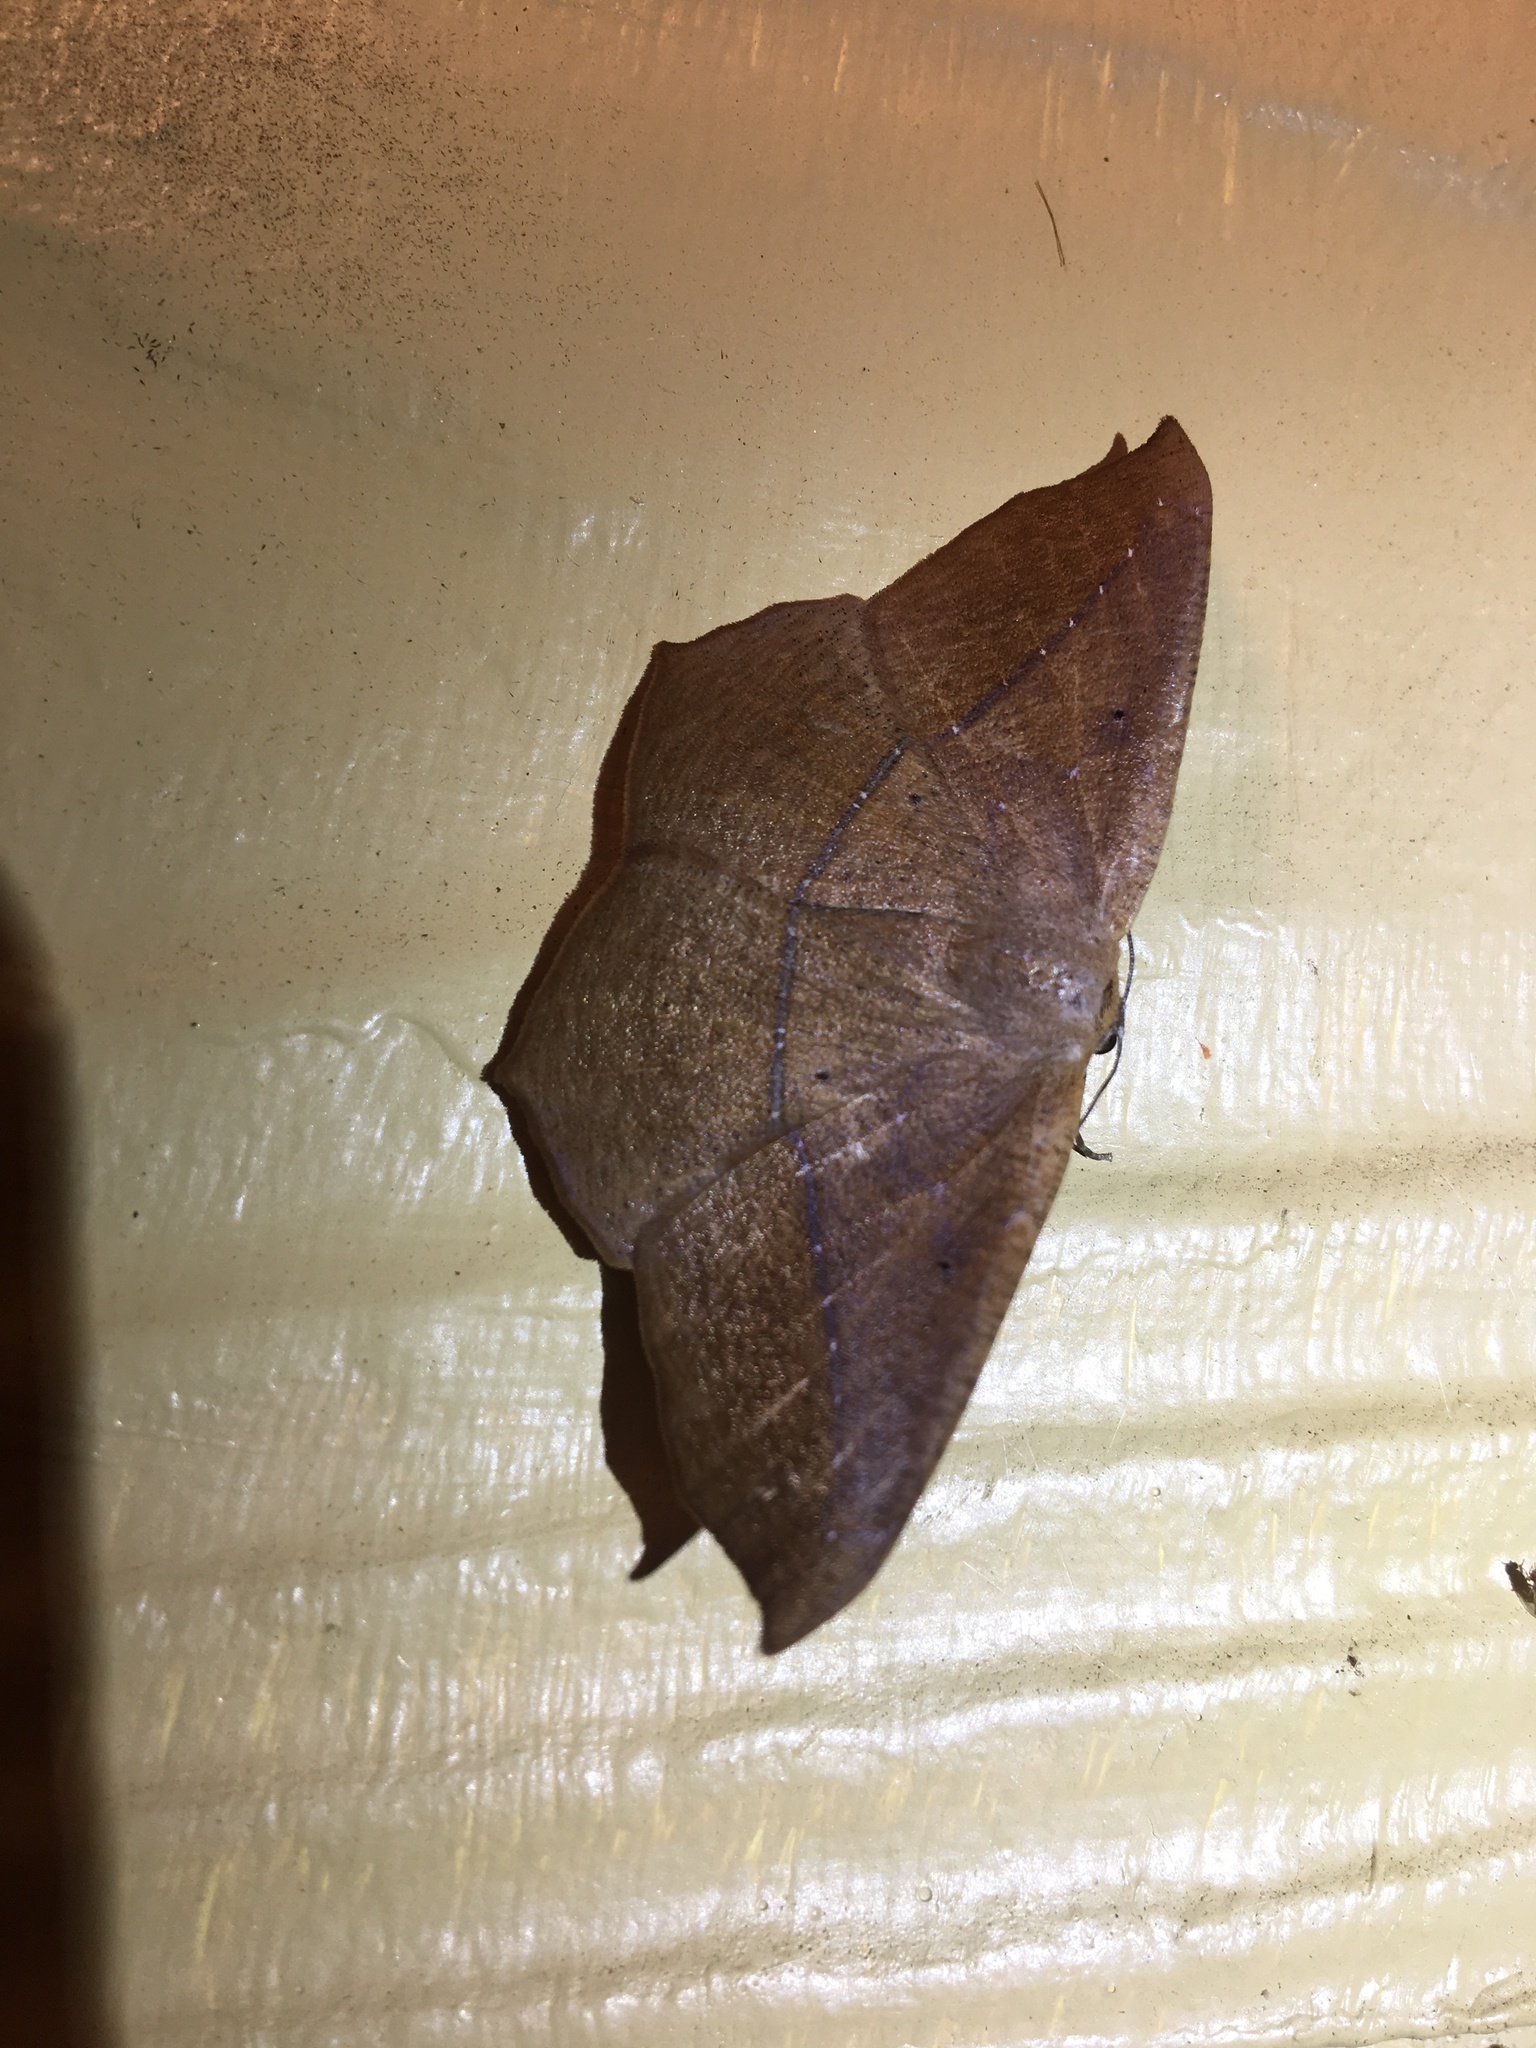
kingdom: Animalia
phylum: Arthropoda
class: Insecta
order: Lepidoptera
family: Geometridae
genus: Prochoerodes
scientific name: Prochoerodes lineola
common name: Large maple spanworm
